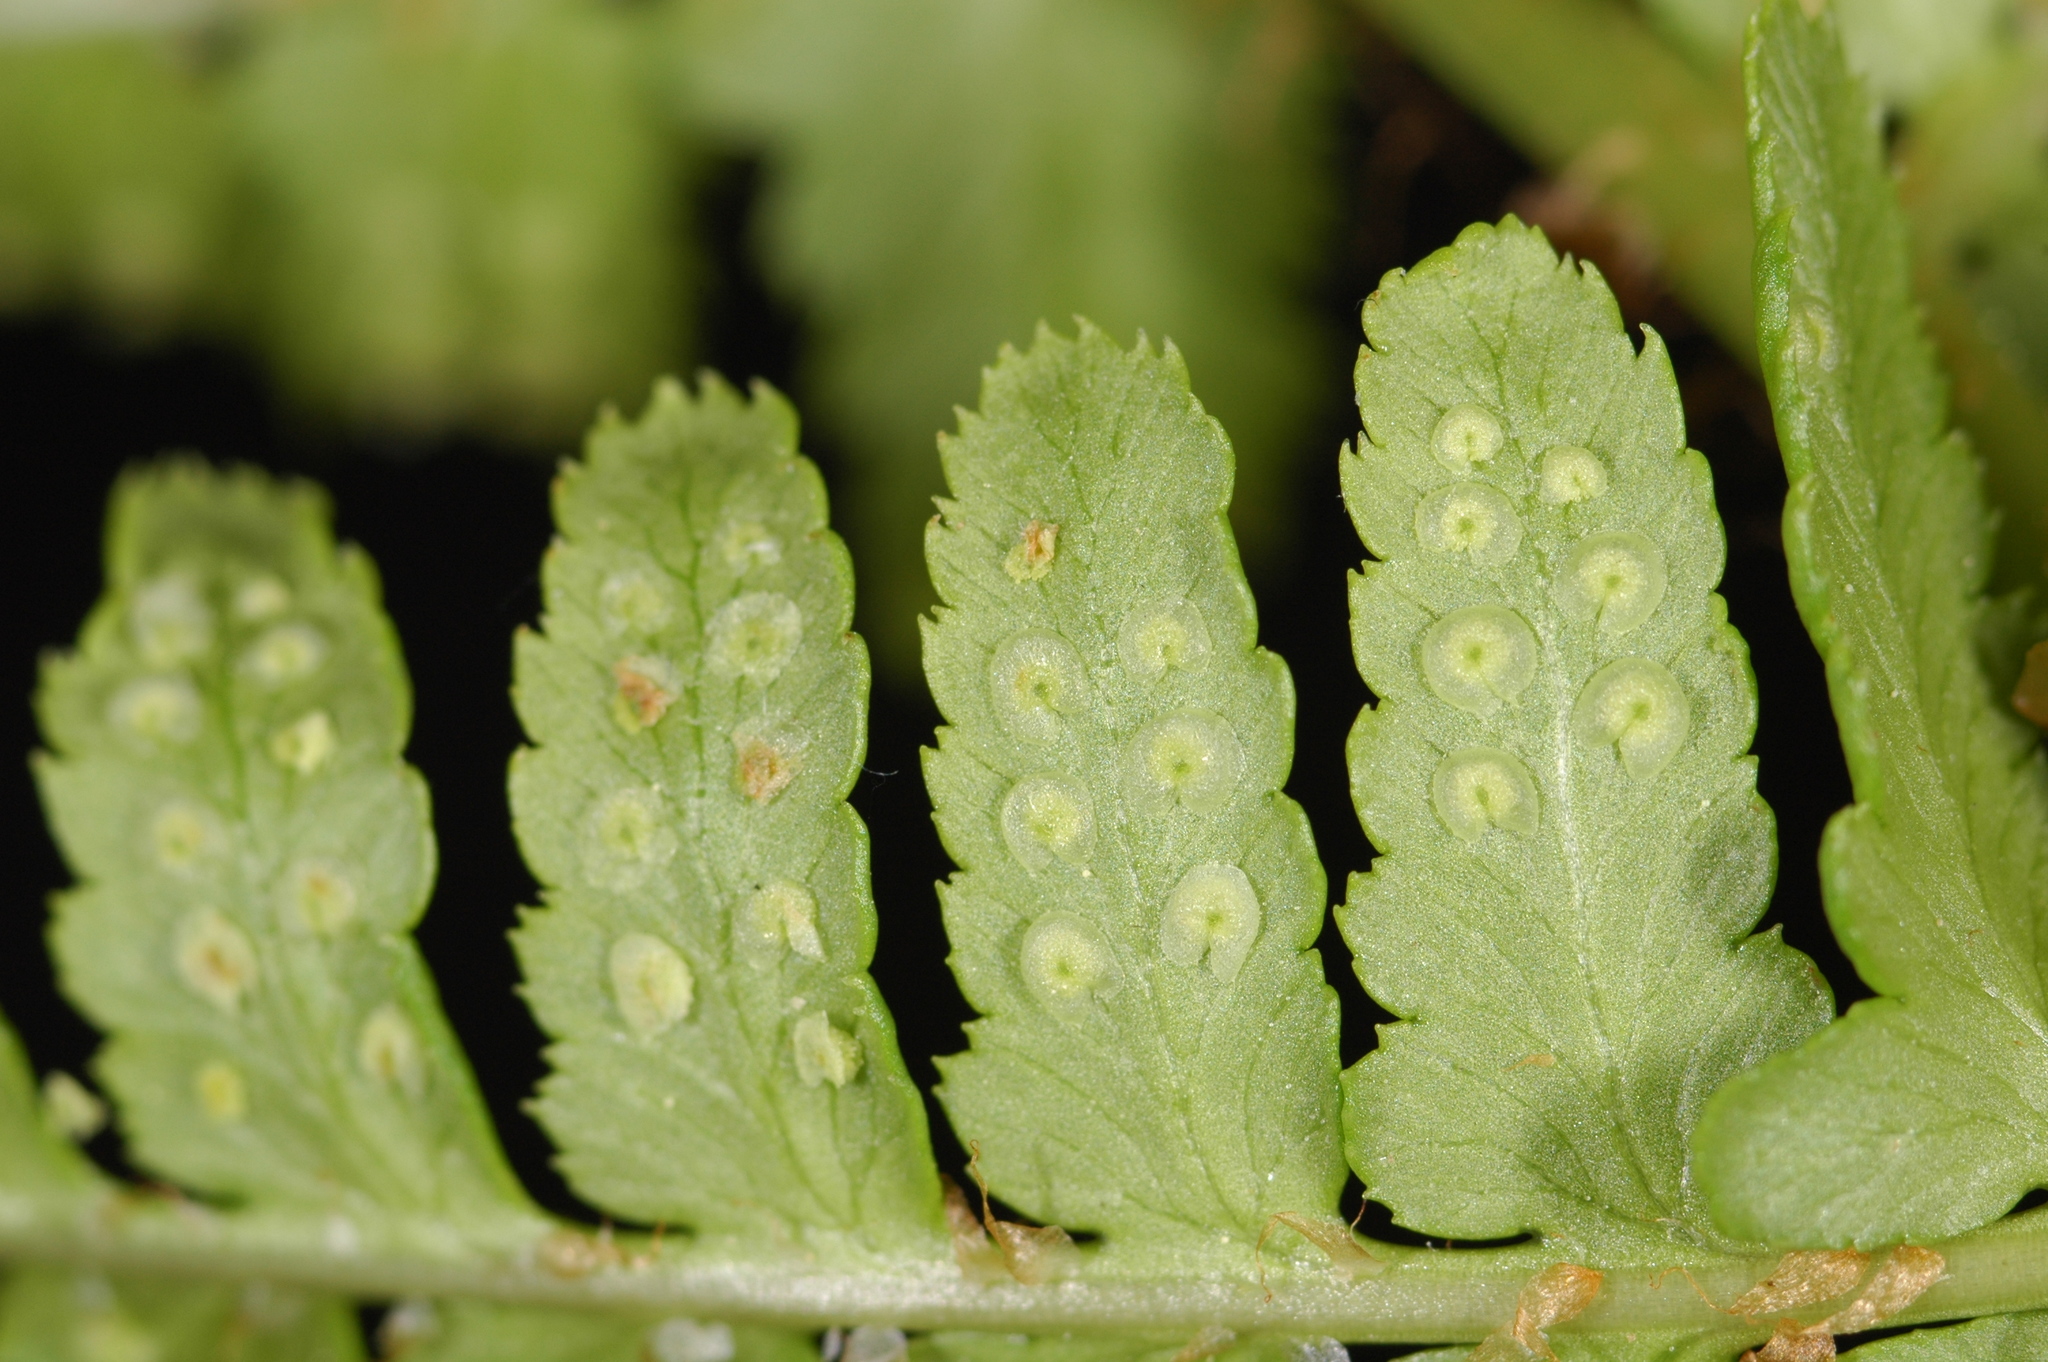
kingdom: Plantae
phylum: Tracheophyta
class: Polypodiopsida
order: Polypodiales
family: Dryopteridaceae
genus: Dryopteris
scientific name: Dryopteris arguta
